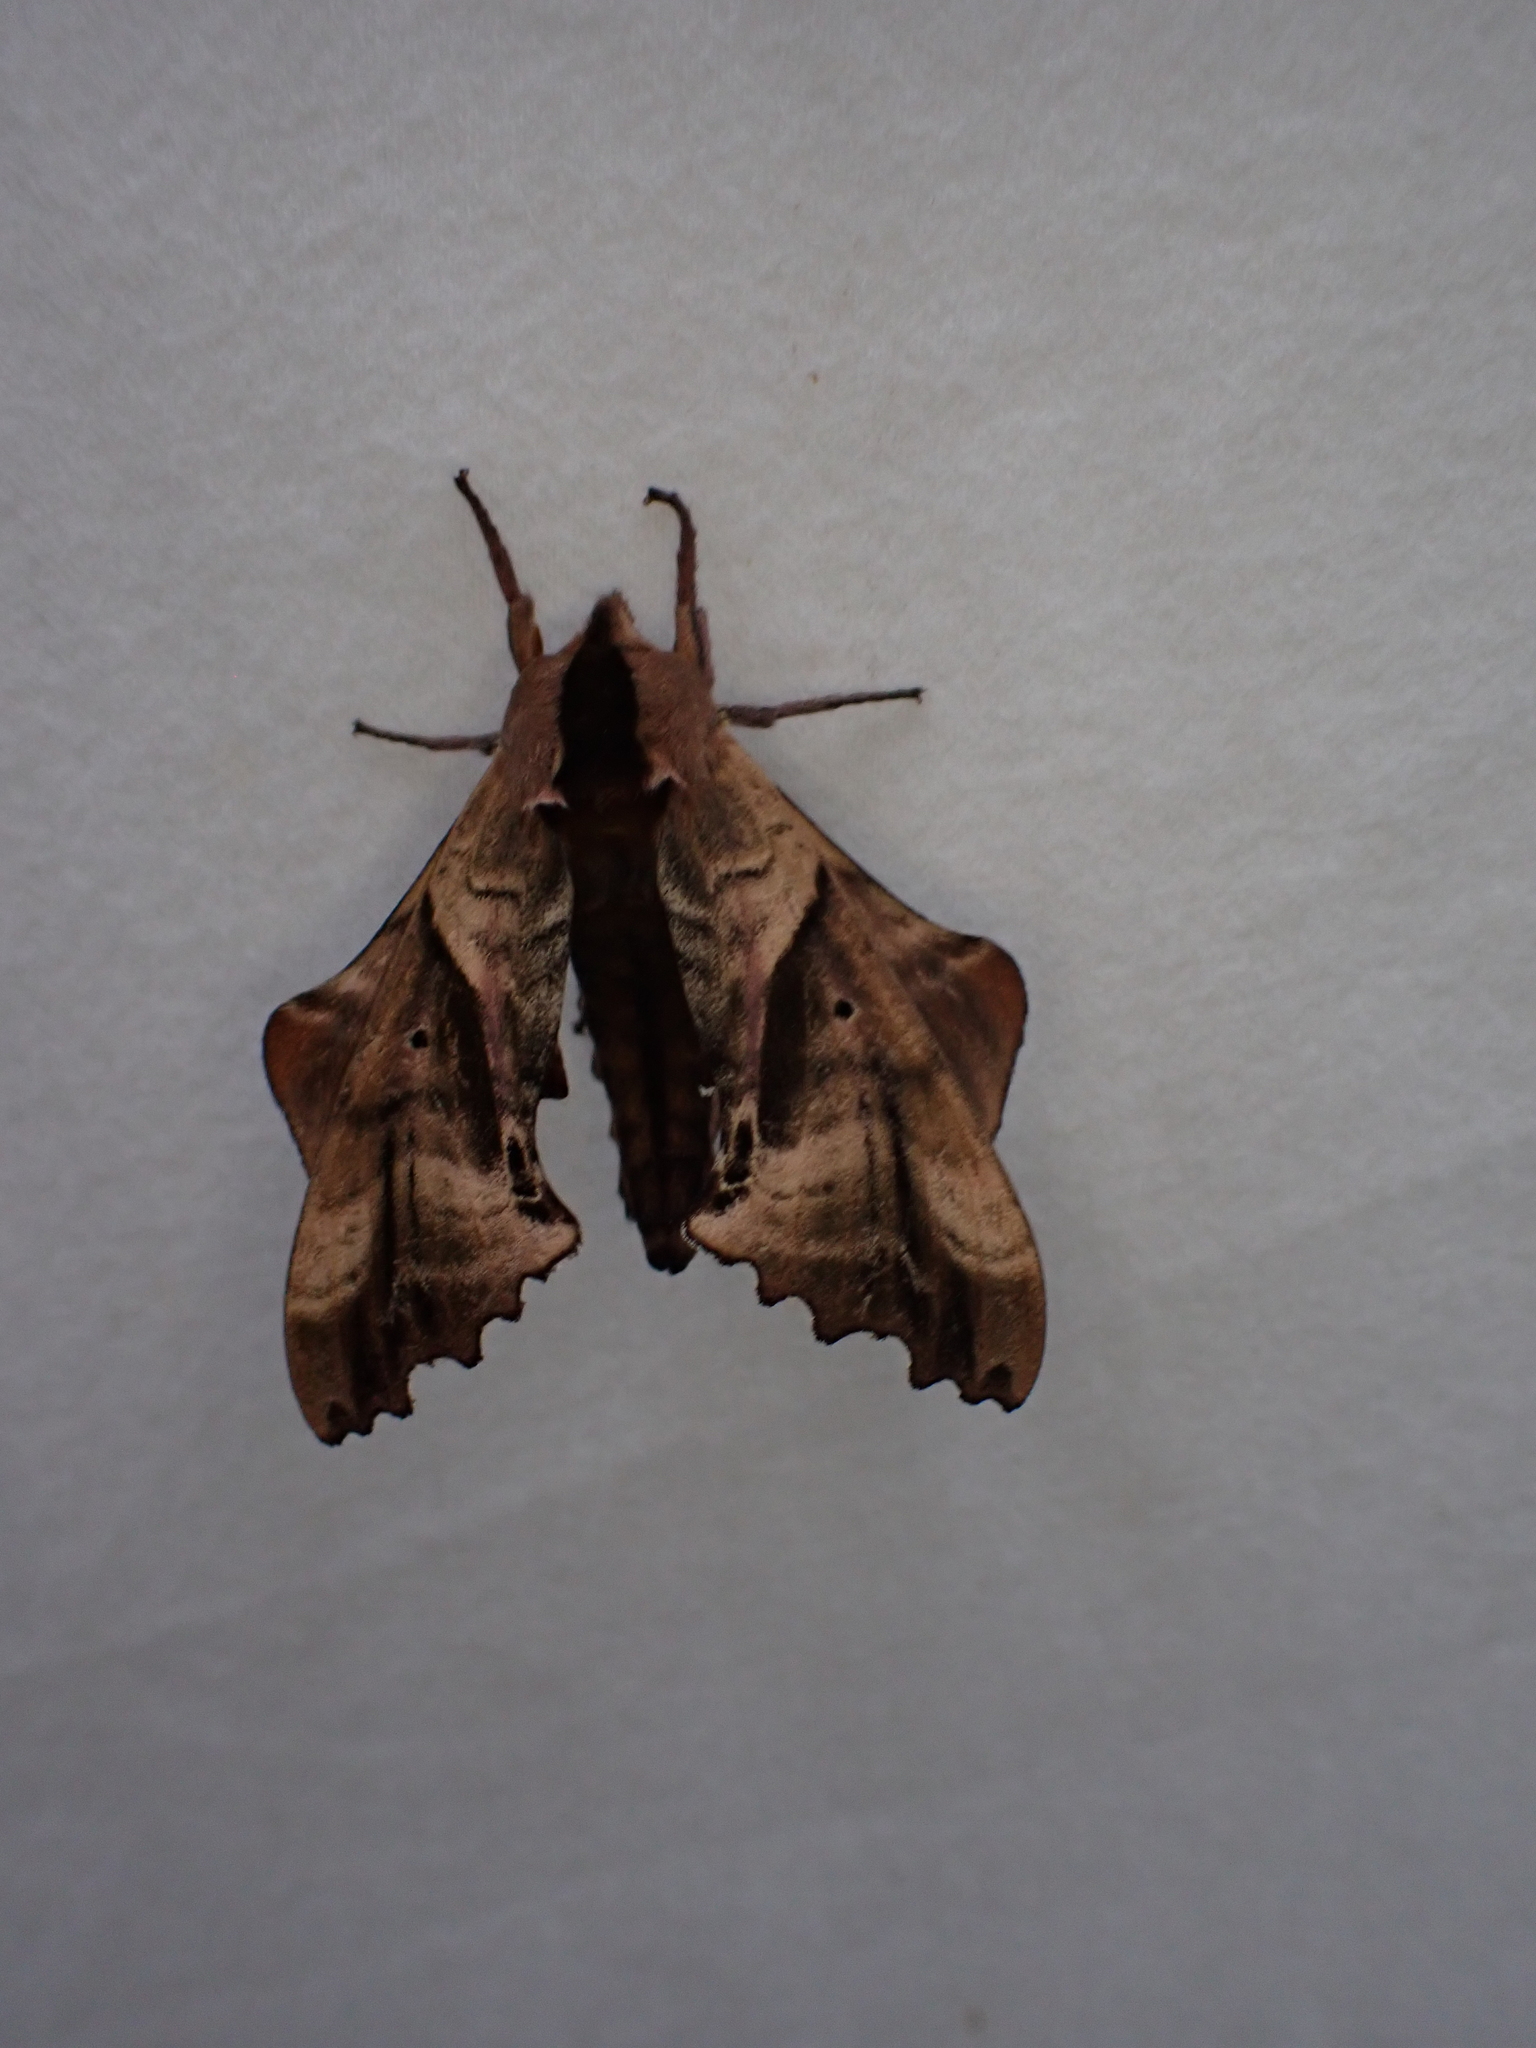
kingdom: Animalia
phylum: Arthropoda
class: Insecta
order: Lepidoptera
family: Sphingidae
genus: Paonias
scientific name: Paonias excaecata
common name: Blind-eyed sphinx
